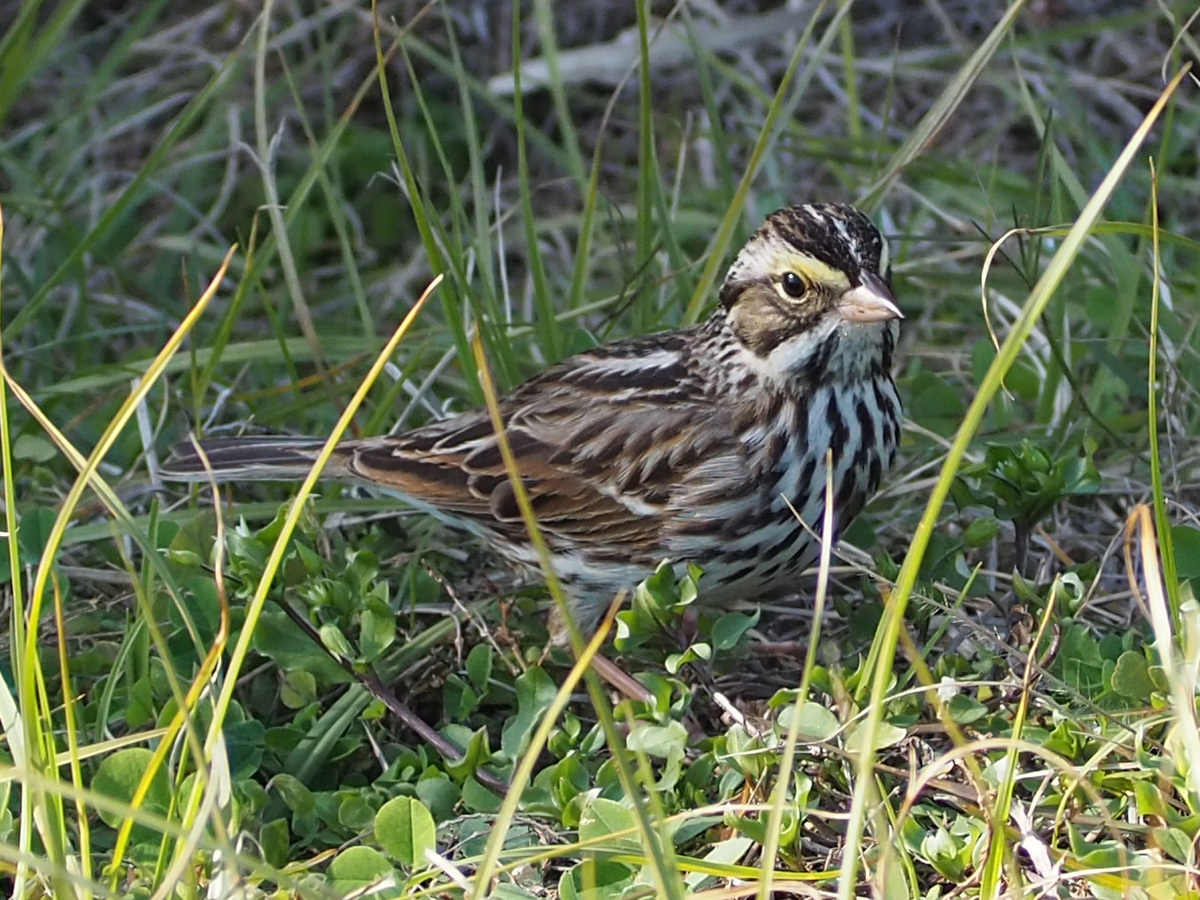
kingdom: Animalia
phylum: Chordata
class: Aves
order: Passeriformes
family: Passerellidae
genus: Passerculus
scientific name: Passerculus sandwichensis
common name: Savannah sparrow
